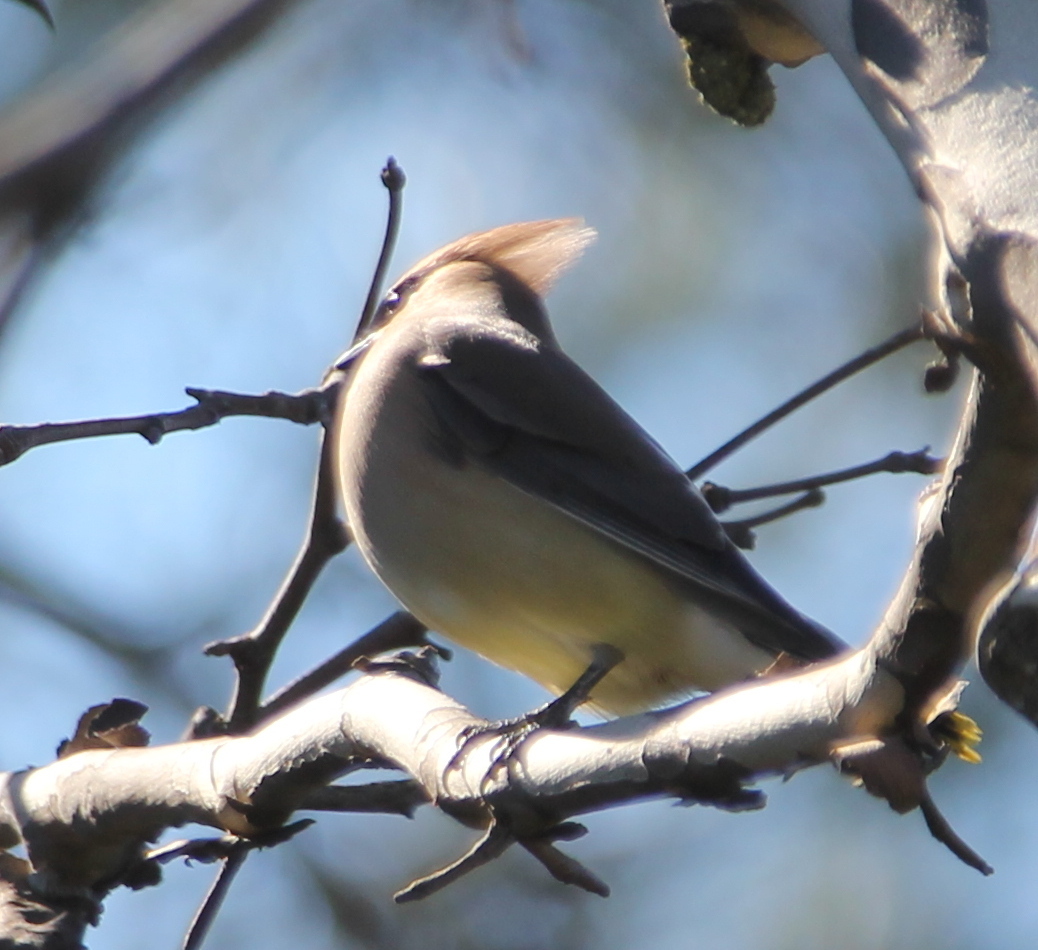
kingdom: Animalia
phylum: Chordata
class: Aves
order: Passeriformes
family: Bombycillidae
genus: Bombycilla
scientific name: Bombycilla cedrorum
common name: Cedar waxwing
